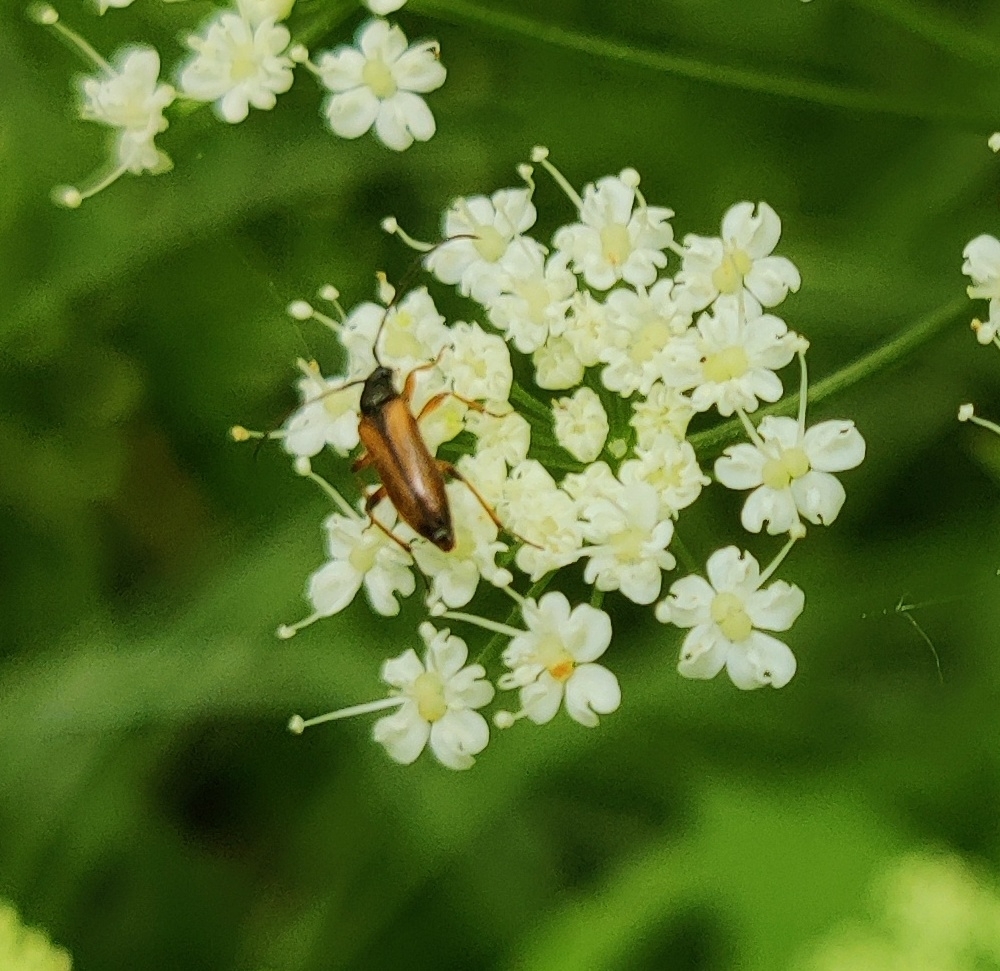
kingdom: Animalia
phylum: Arthropoda
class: Insecta
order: Coleoptera
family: Cerambycidae
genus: Alosterna
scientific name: Alosterna tabacicolor
